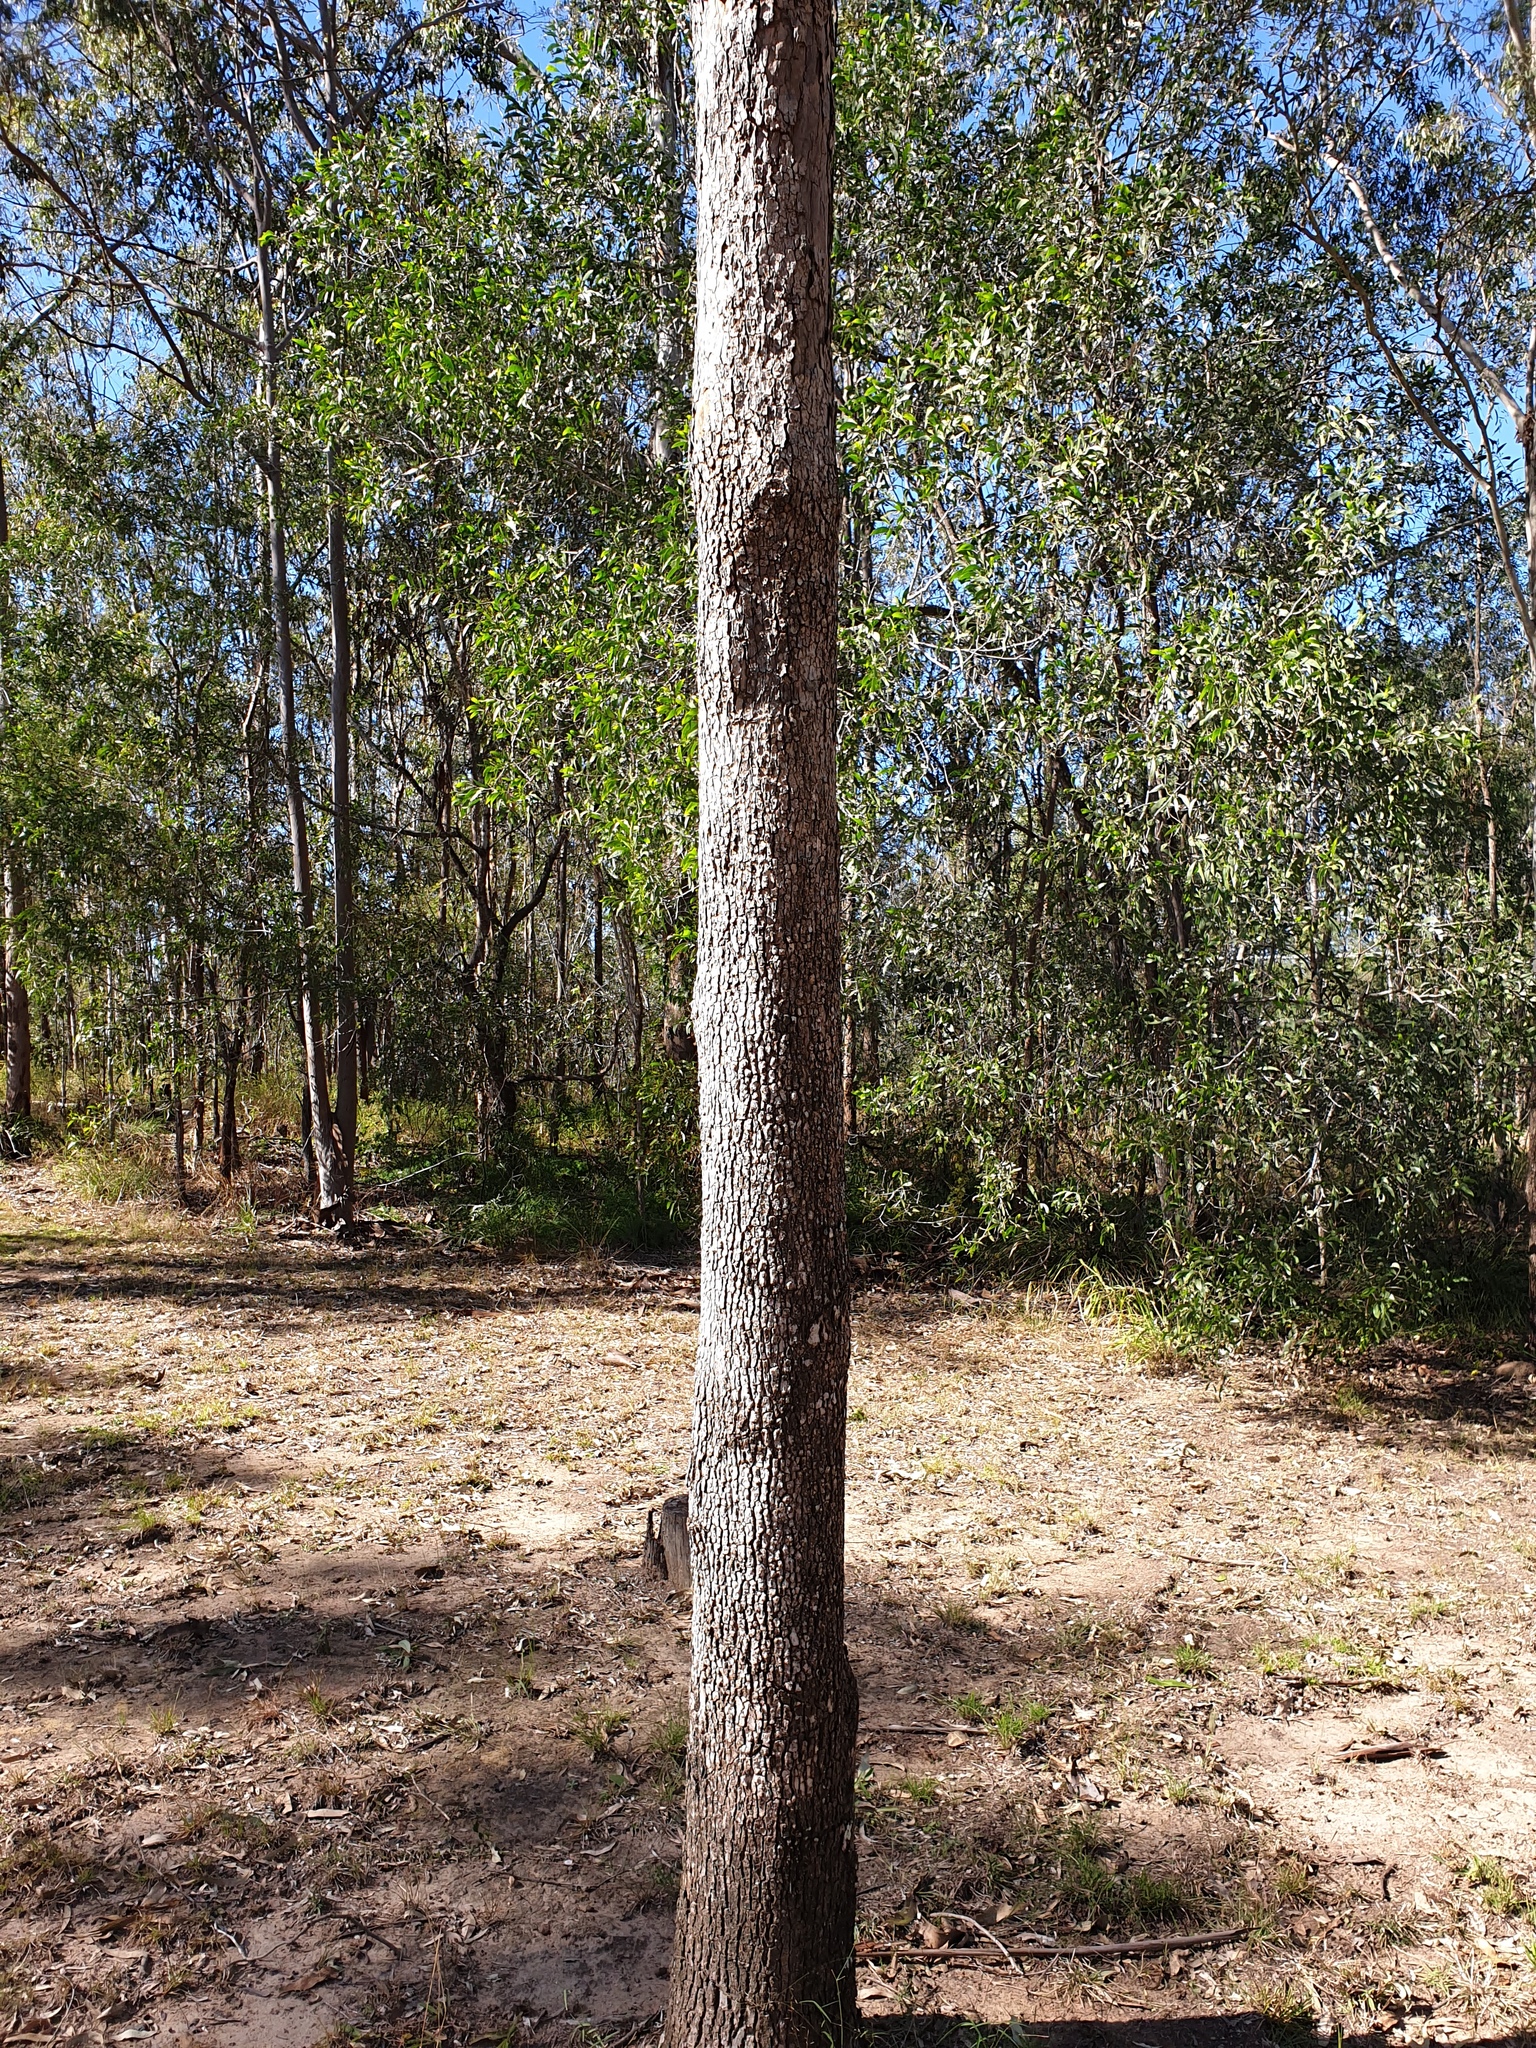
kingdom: Plantae
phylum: Tracheophyta
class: Magnoliopsida
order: Myrtales
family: Myrtaceae
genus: Corymbia
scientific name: Corymbia tessellaris
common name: Carbeen
